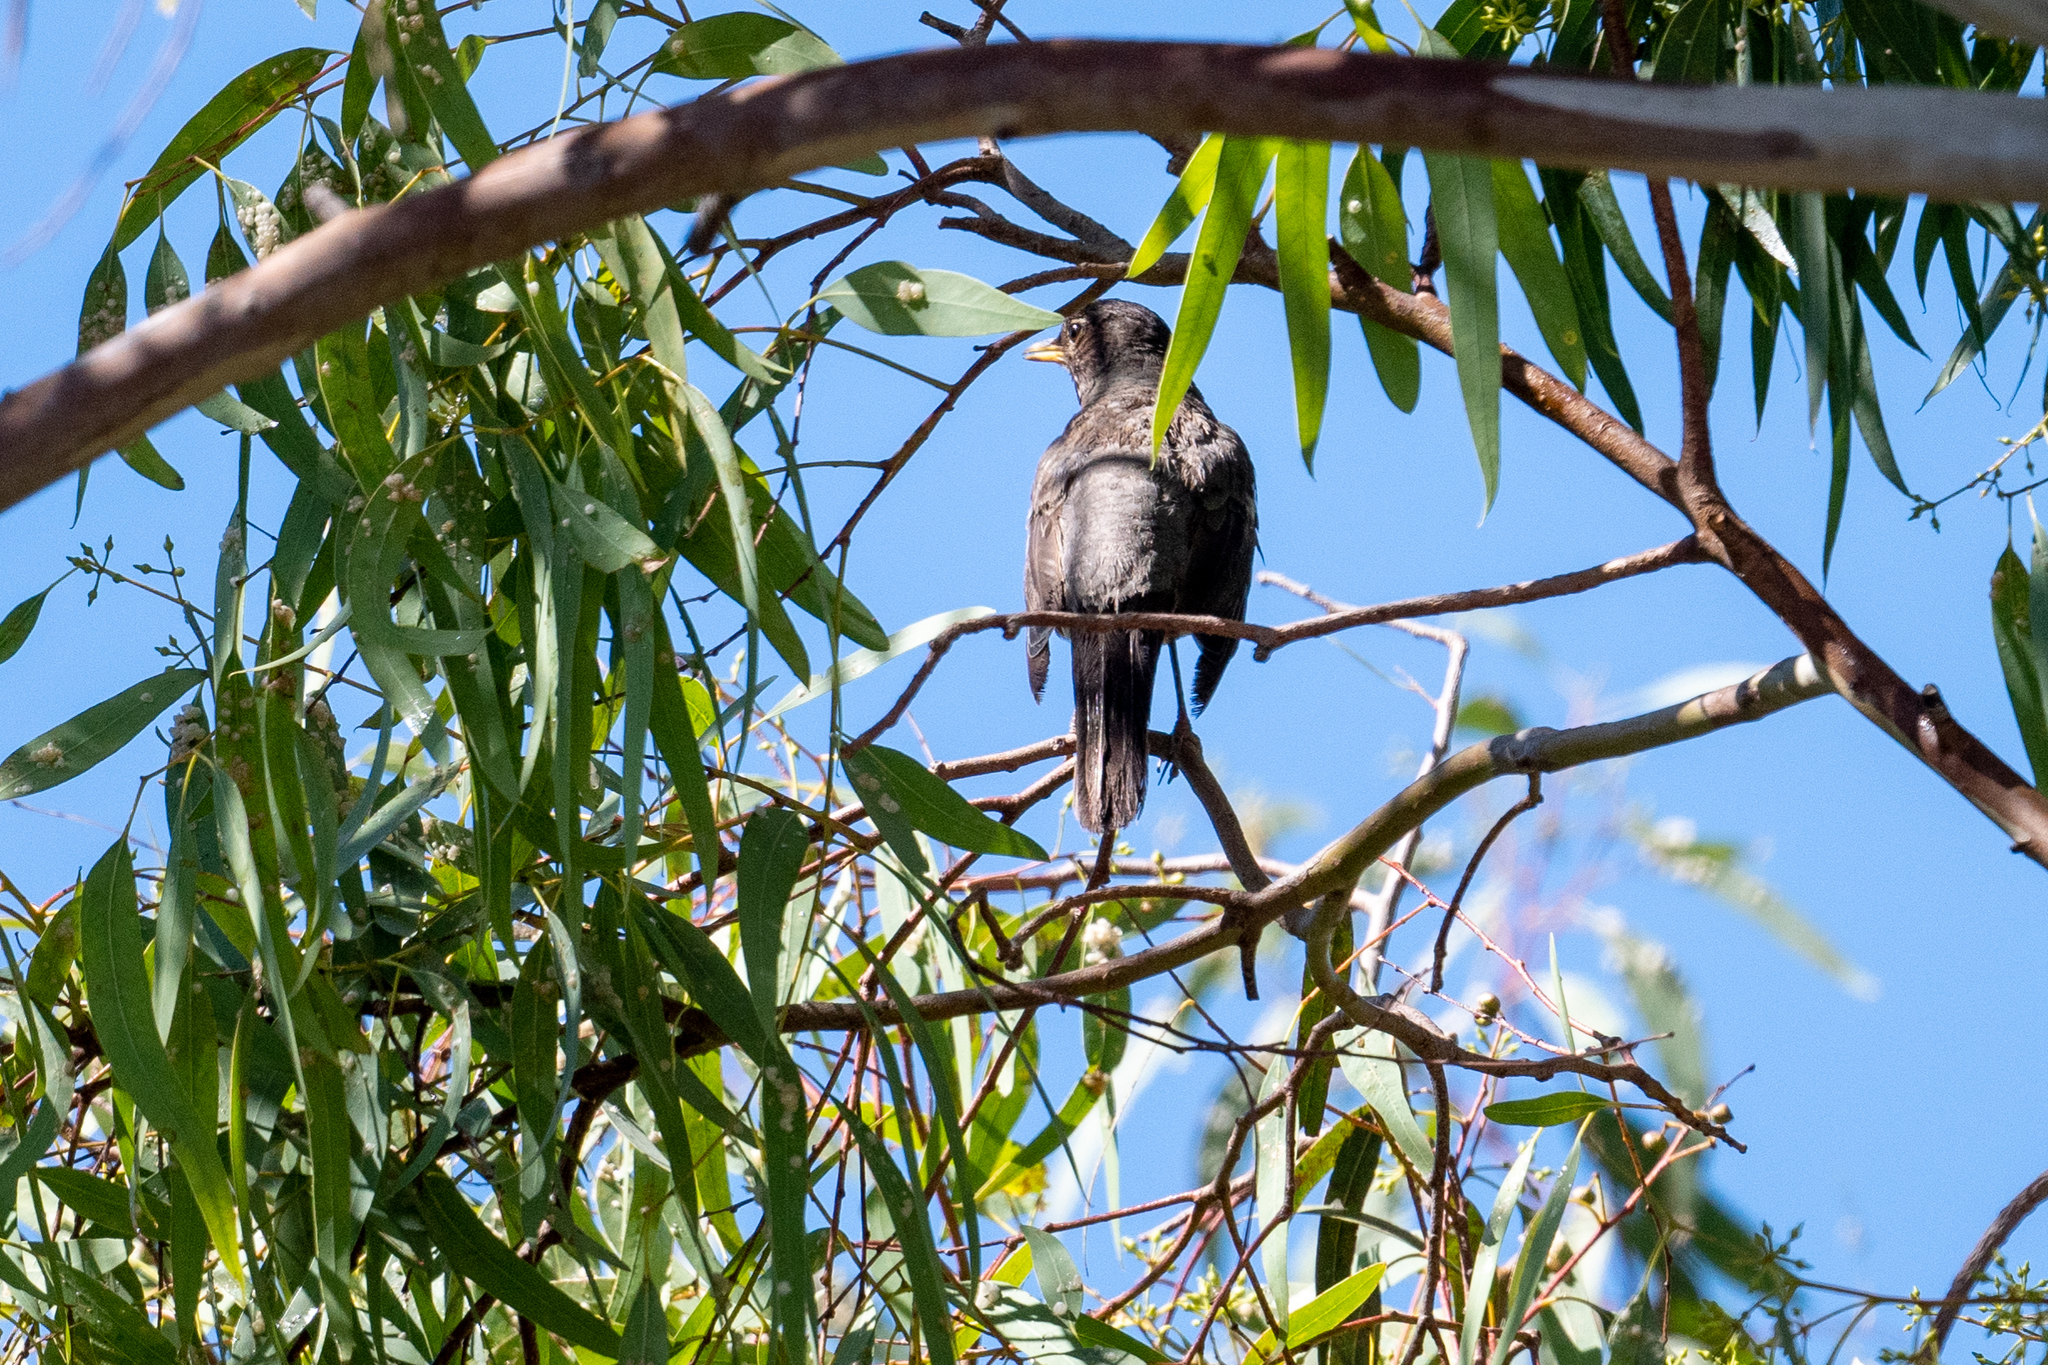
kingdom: Animalia
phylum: Chordata
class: Aves
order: Passeriformes
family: Turdidae
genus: Turdus
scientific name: Turdus migratorius
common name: American robin
